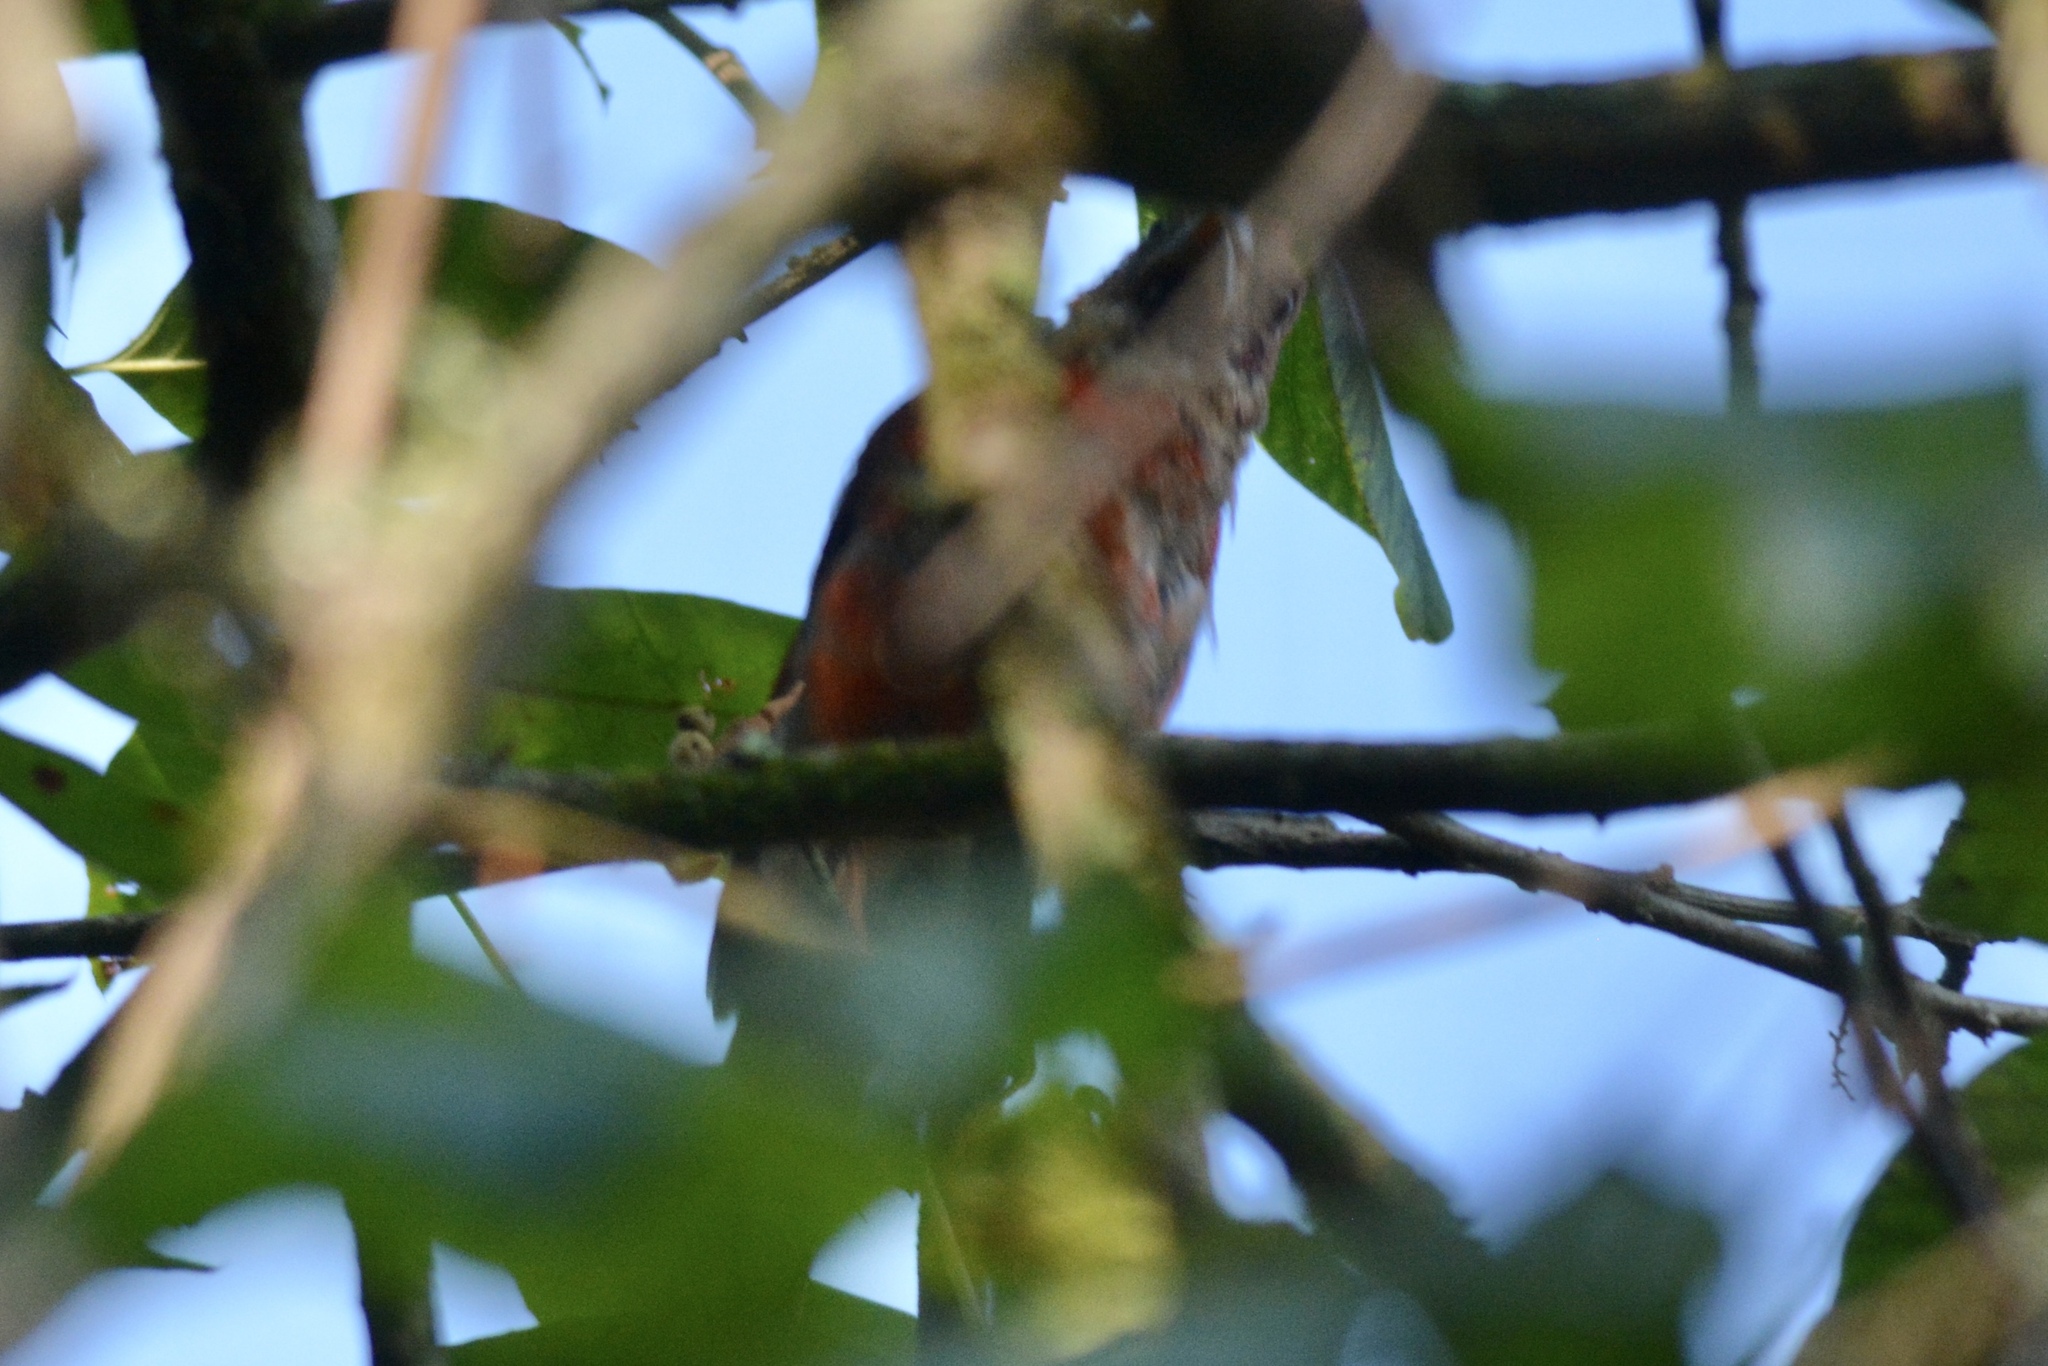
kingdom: Animalia
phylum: Chordata
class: Aves
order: Passeriformes
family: Cardinalidae
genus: Cardinalis
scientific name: Cardinalis cardinalis
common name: Northern cardinal
